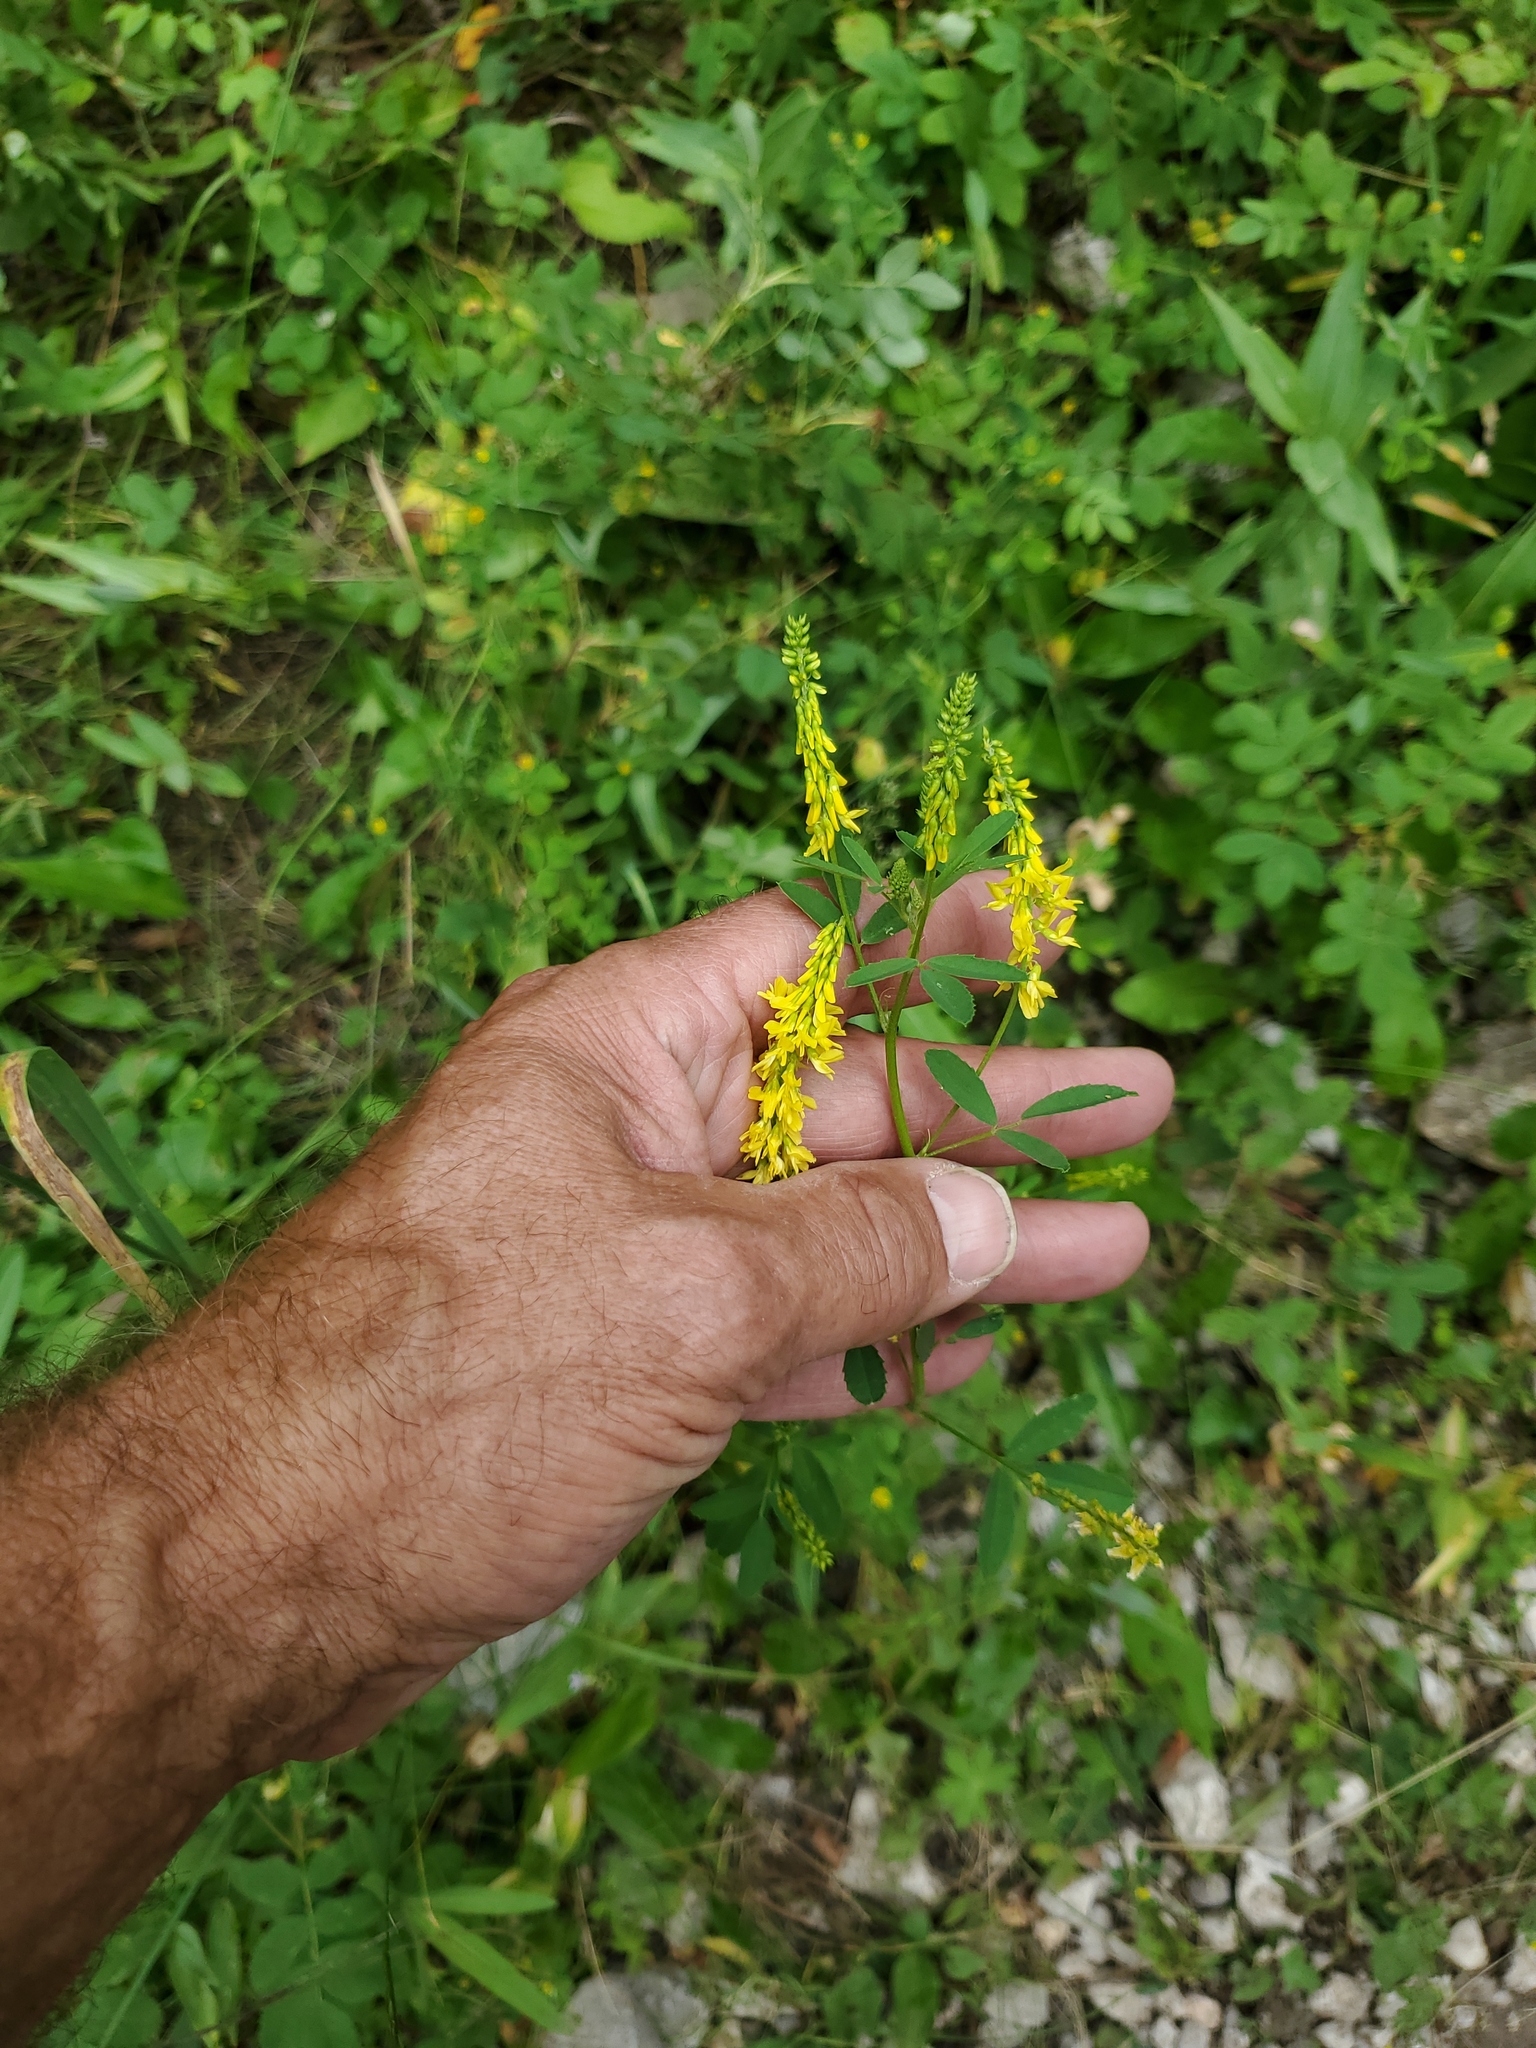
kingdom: Plantae
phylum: Tracheophyta
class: Magnoliopsida
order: Fabales
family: Fabaceae
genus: Melilotus
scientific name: Melilotus officinalis
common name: Sweetclover
